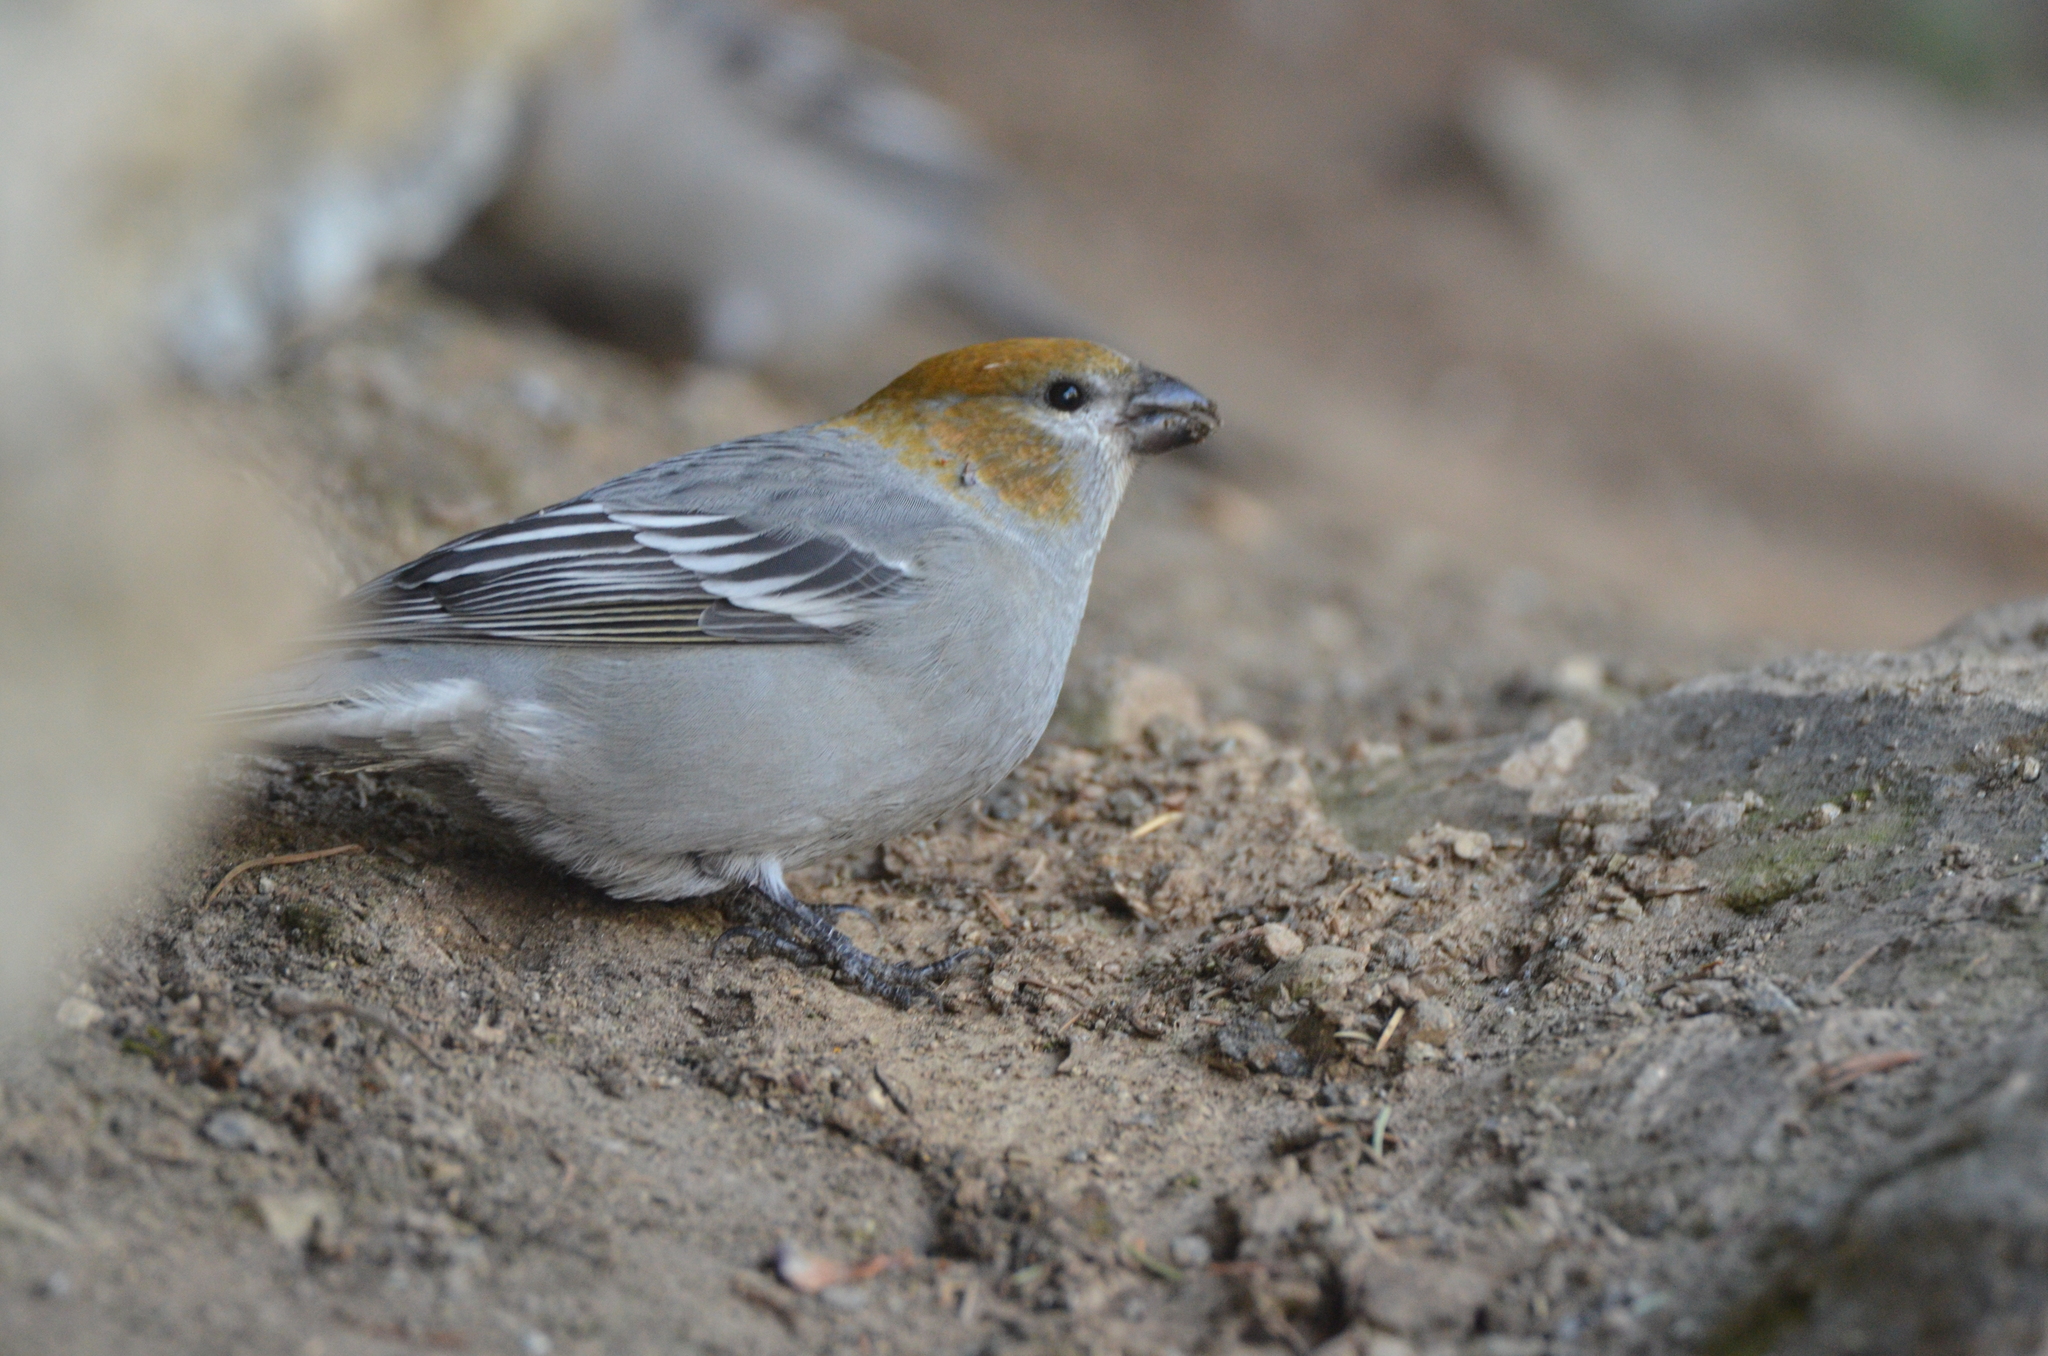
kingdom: Animalia
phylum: Chordata
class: Aves
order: Passeriformes
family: Fringillidae
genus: Pinicola
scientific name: Pinicola enucleator
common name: Pine grosbeak
